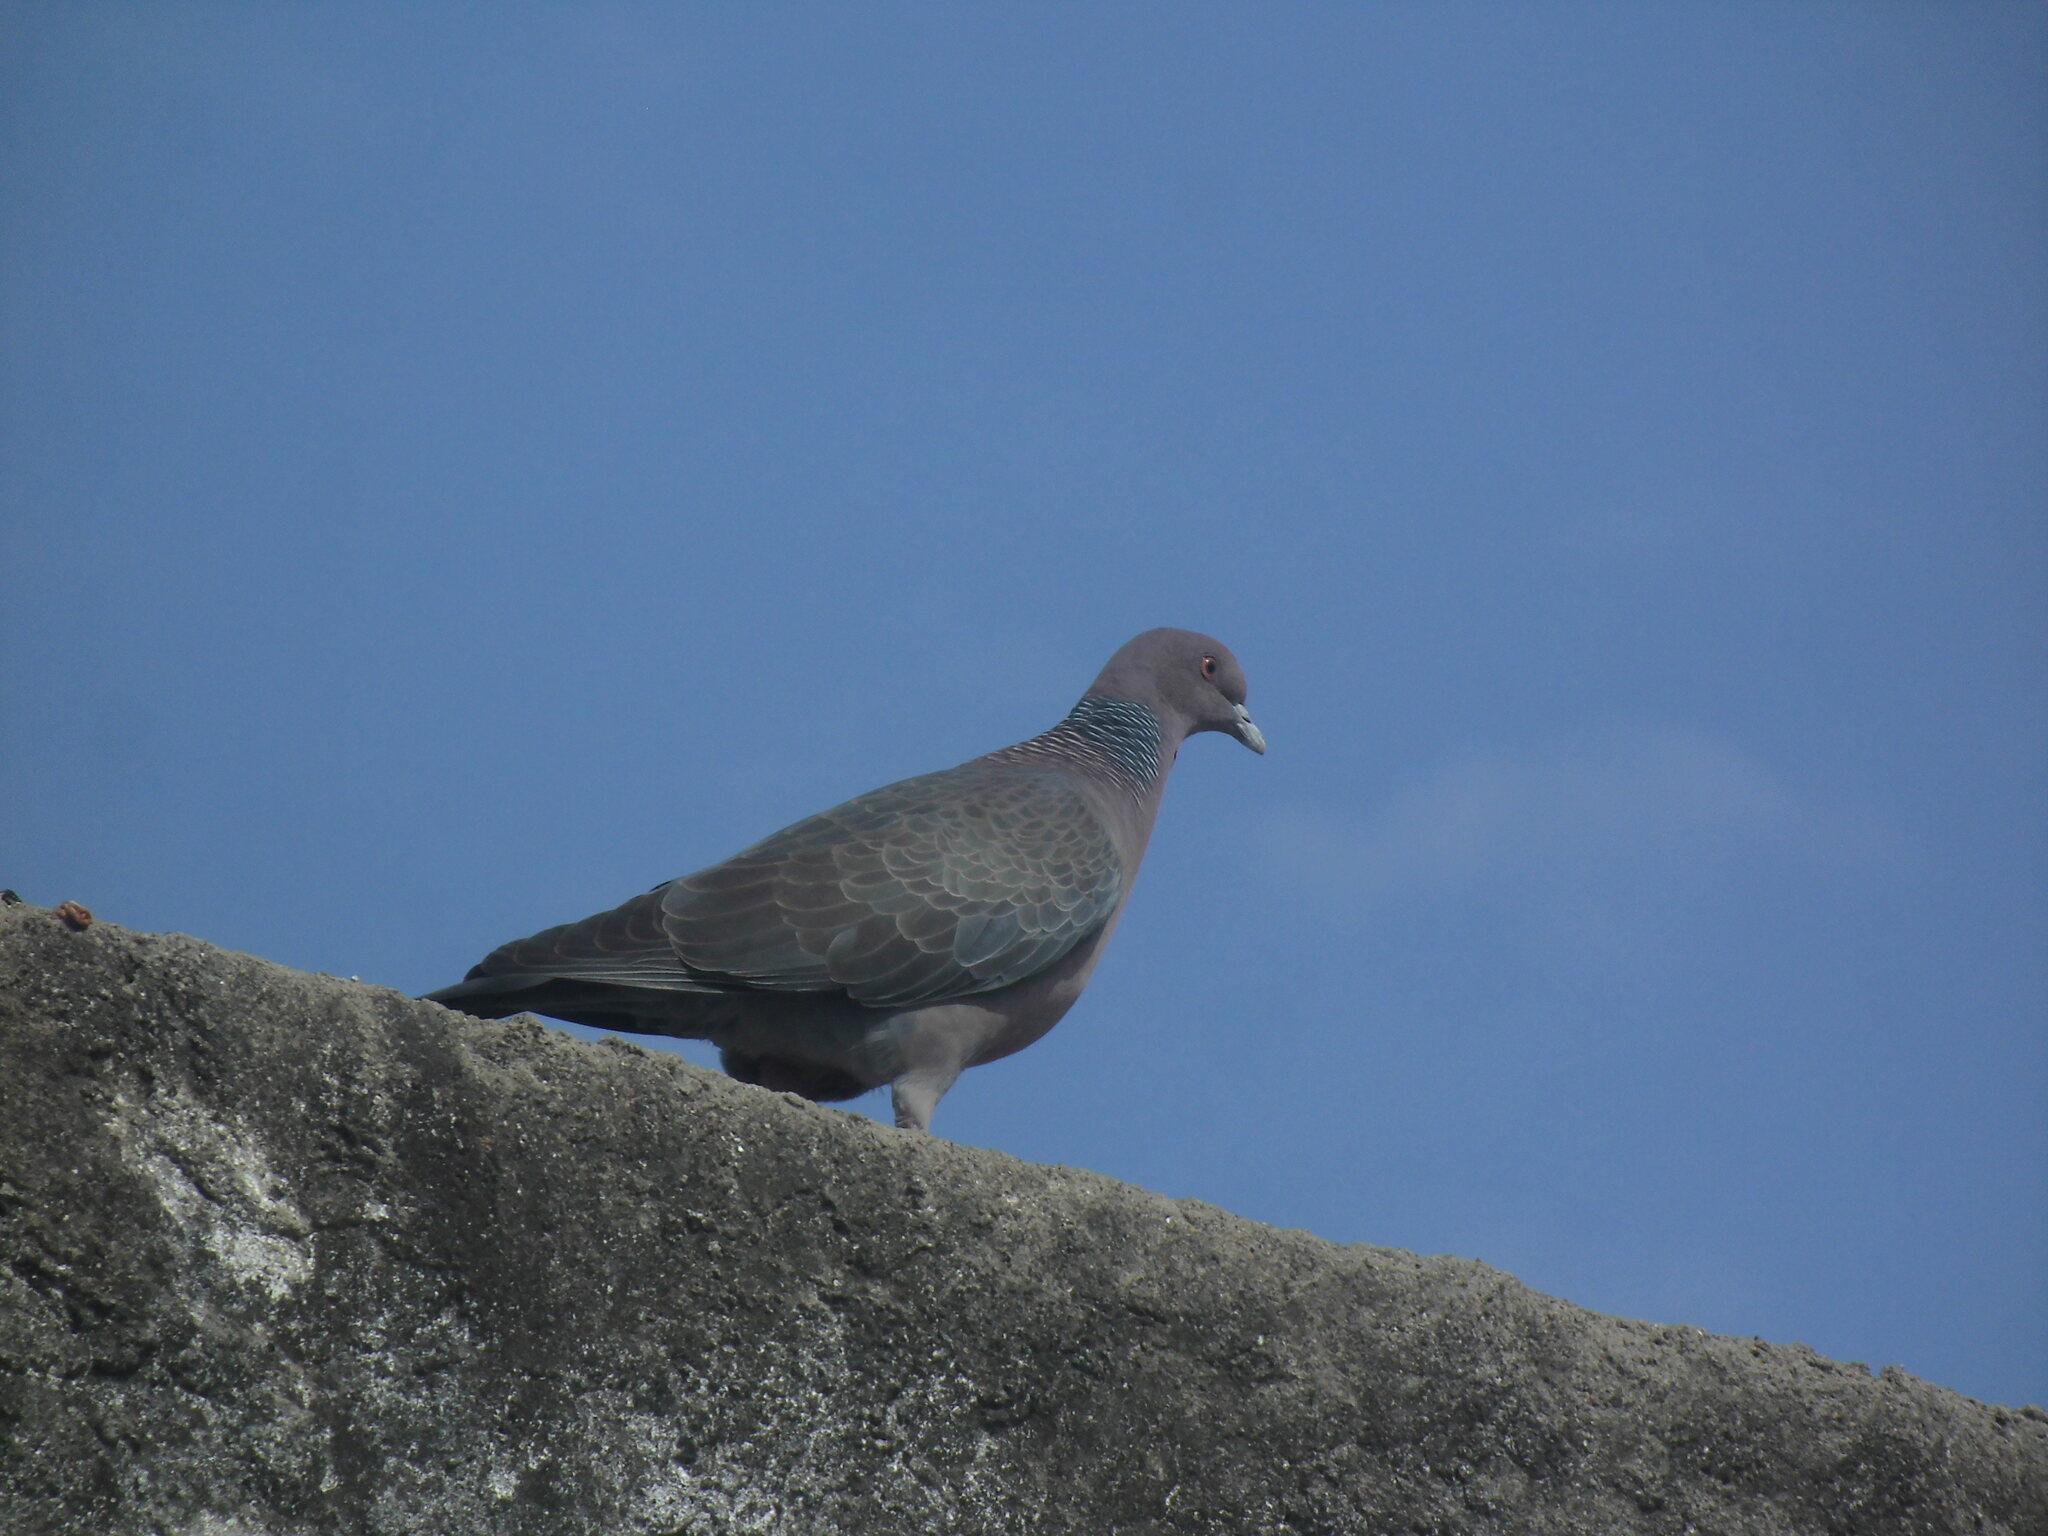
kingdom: Animalia
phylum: Chordata
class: Aves
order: Columbiformes
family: Columbidae
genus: Patagioenas
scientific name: Patagioenas picazuro
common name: Picazuro pigeon
